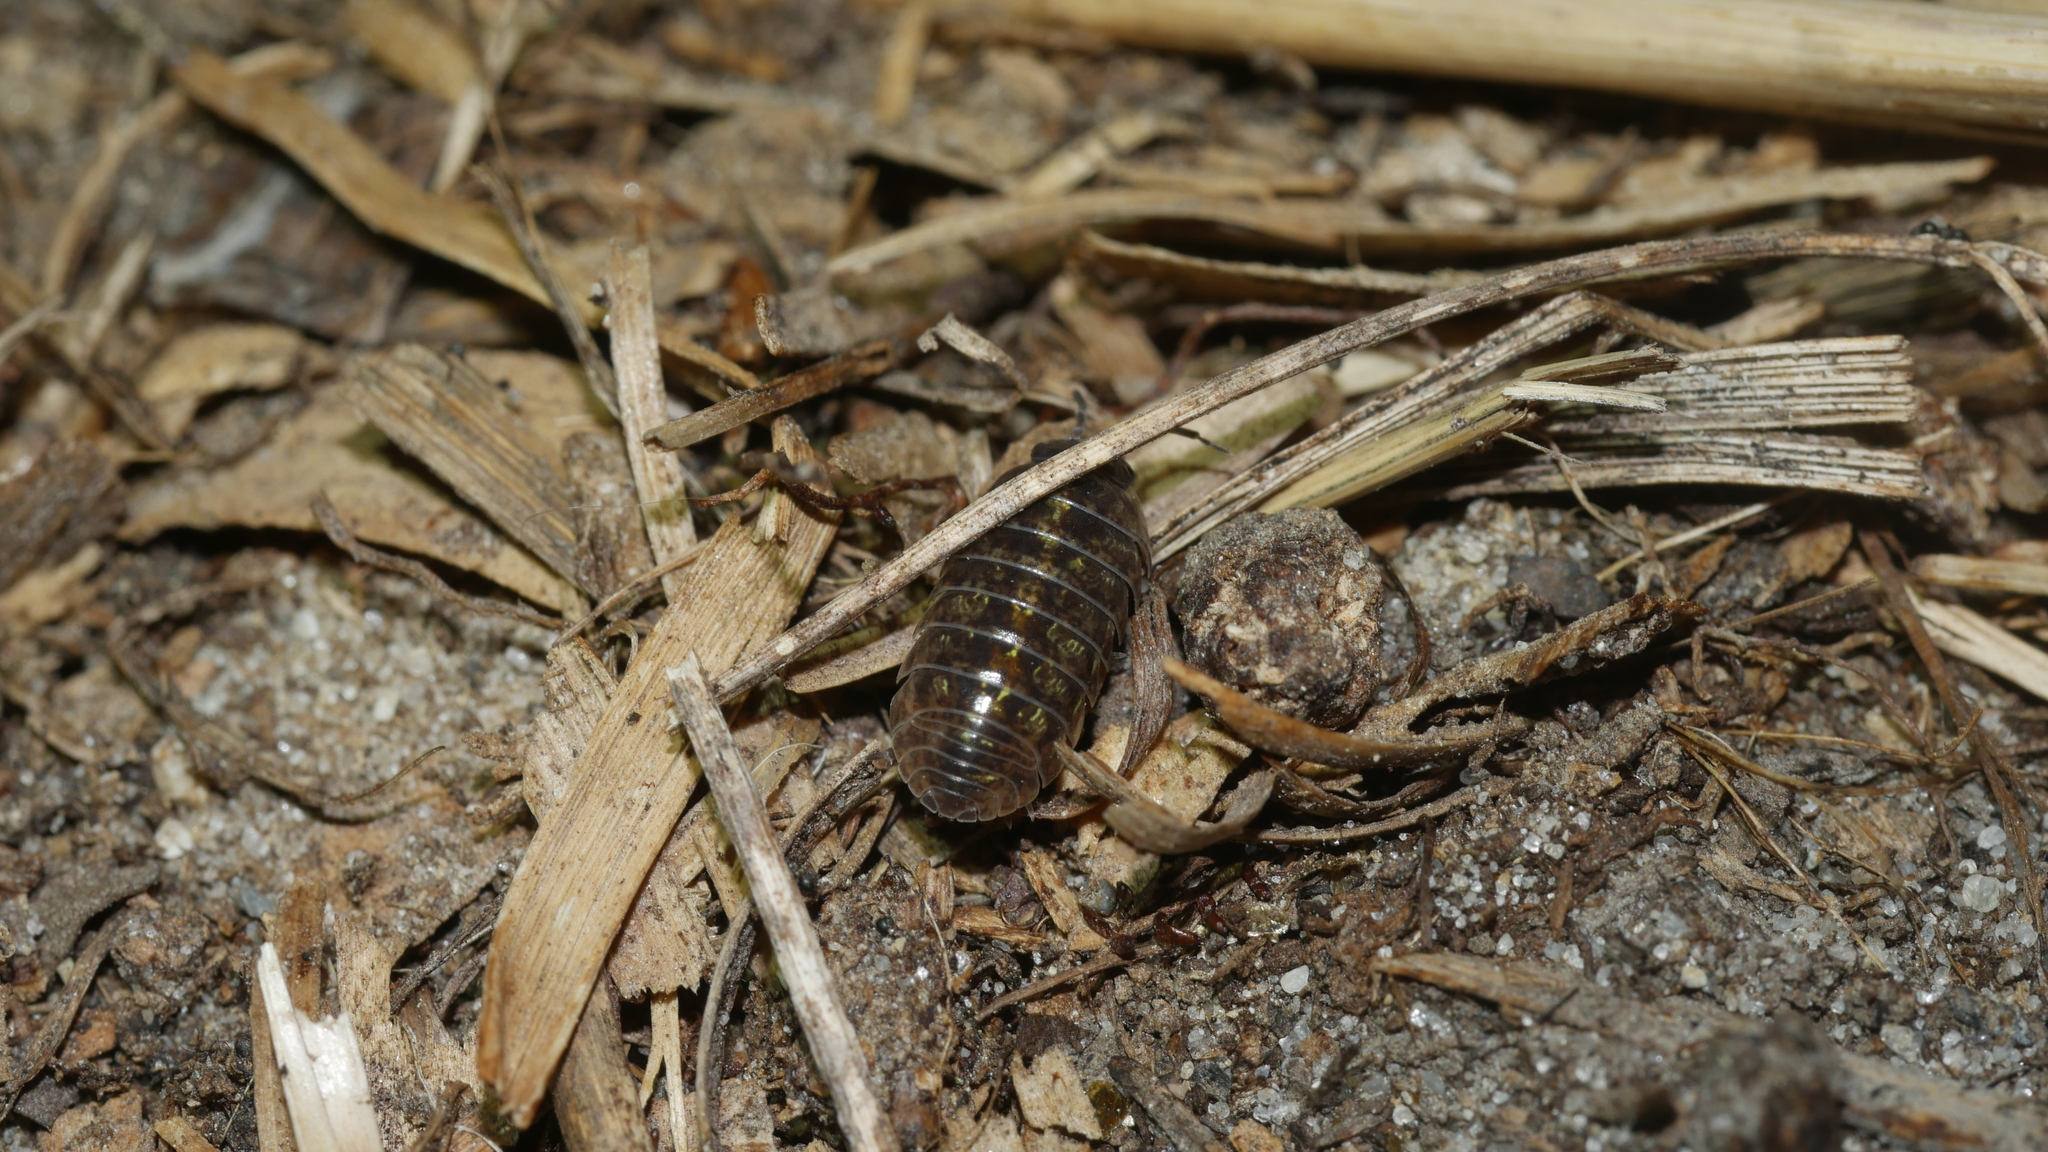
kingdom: Animalia
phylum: Arthropoda
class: Malacostraca
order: Isopoda
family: Armadillidiidae
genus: Armadillidium
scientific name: Armadillidium vulgare
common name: Common pill woodlouse
